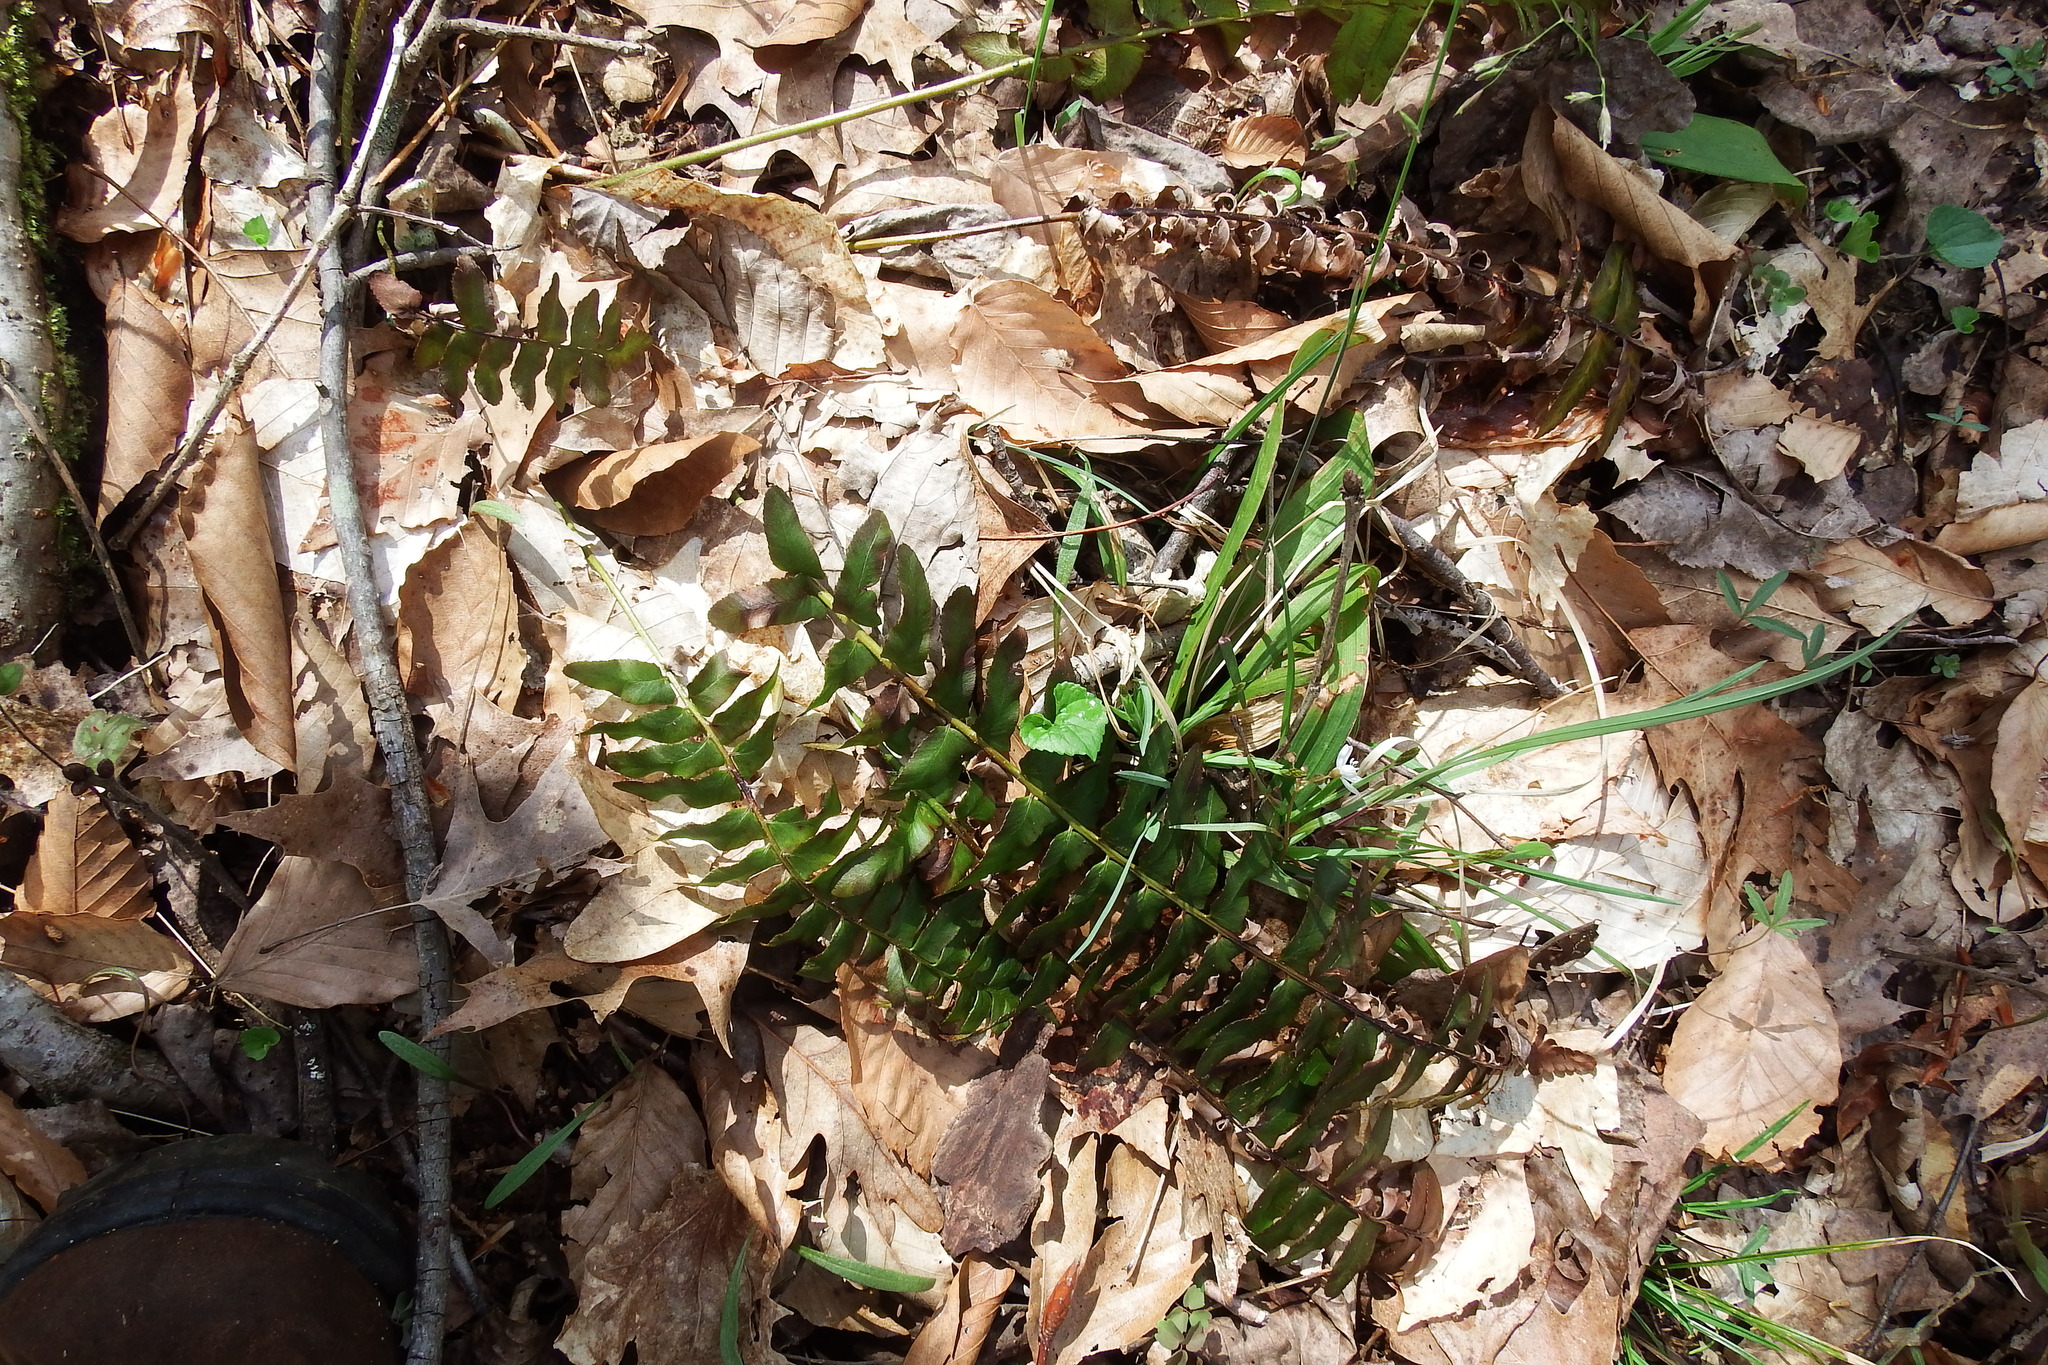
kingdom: Plantae
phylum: Tracheophyta
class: Polypodiopsida
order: Polypodiales
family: Dryopteridaceae
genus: Polystichum
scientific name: Polystichum acrostichoides
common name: Christmas fern
